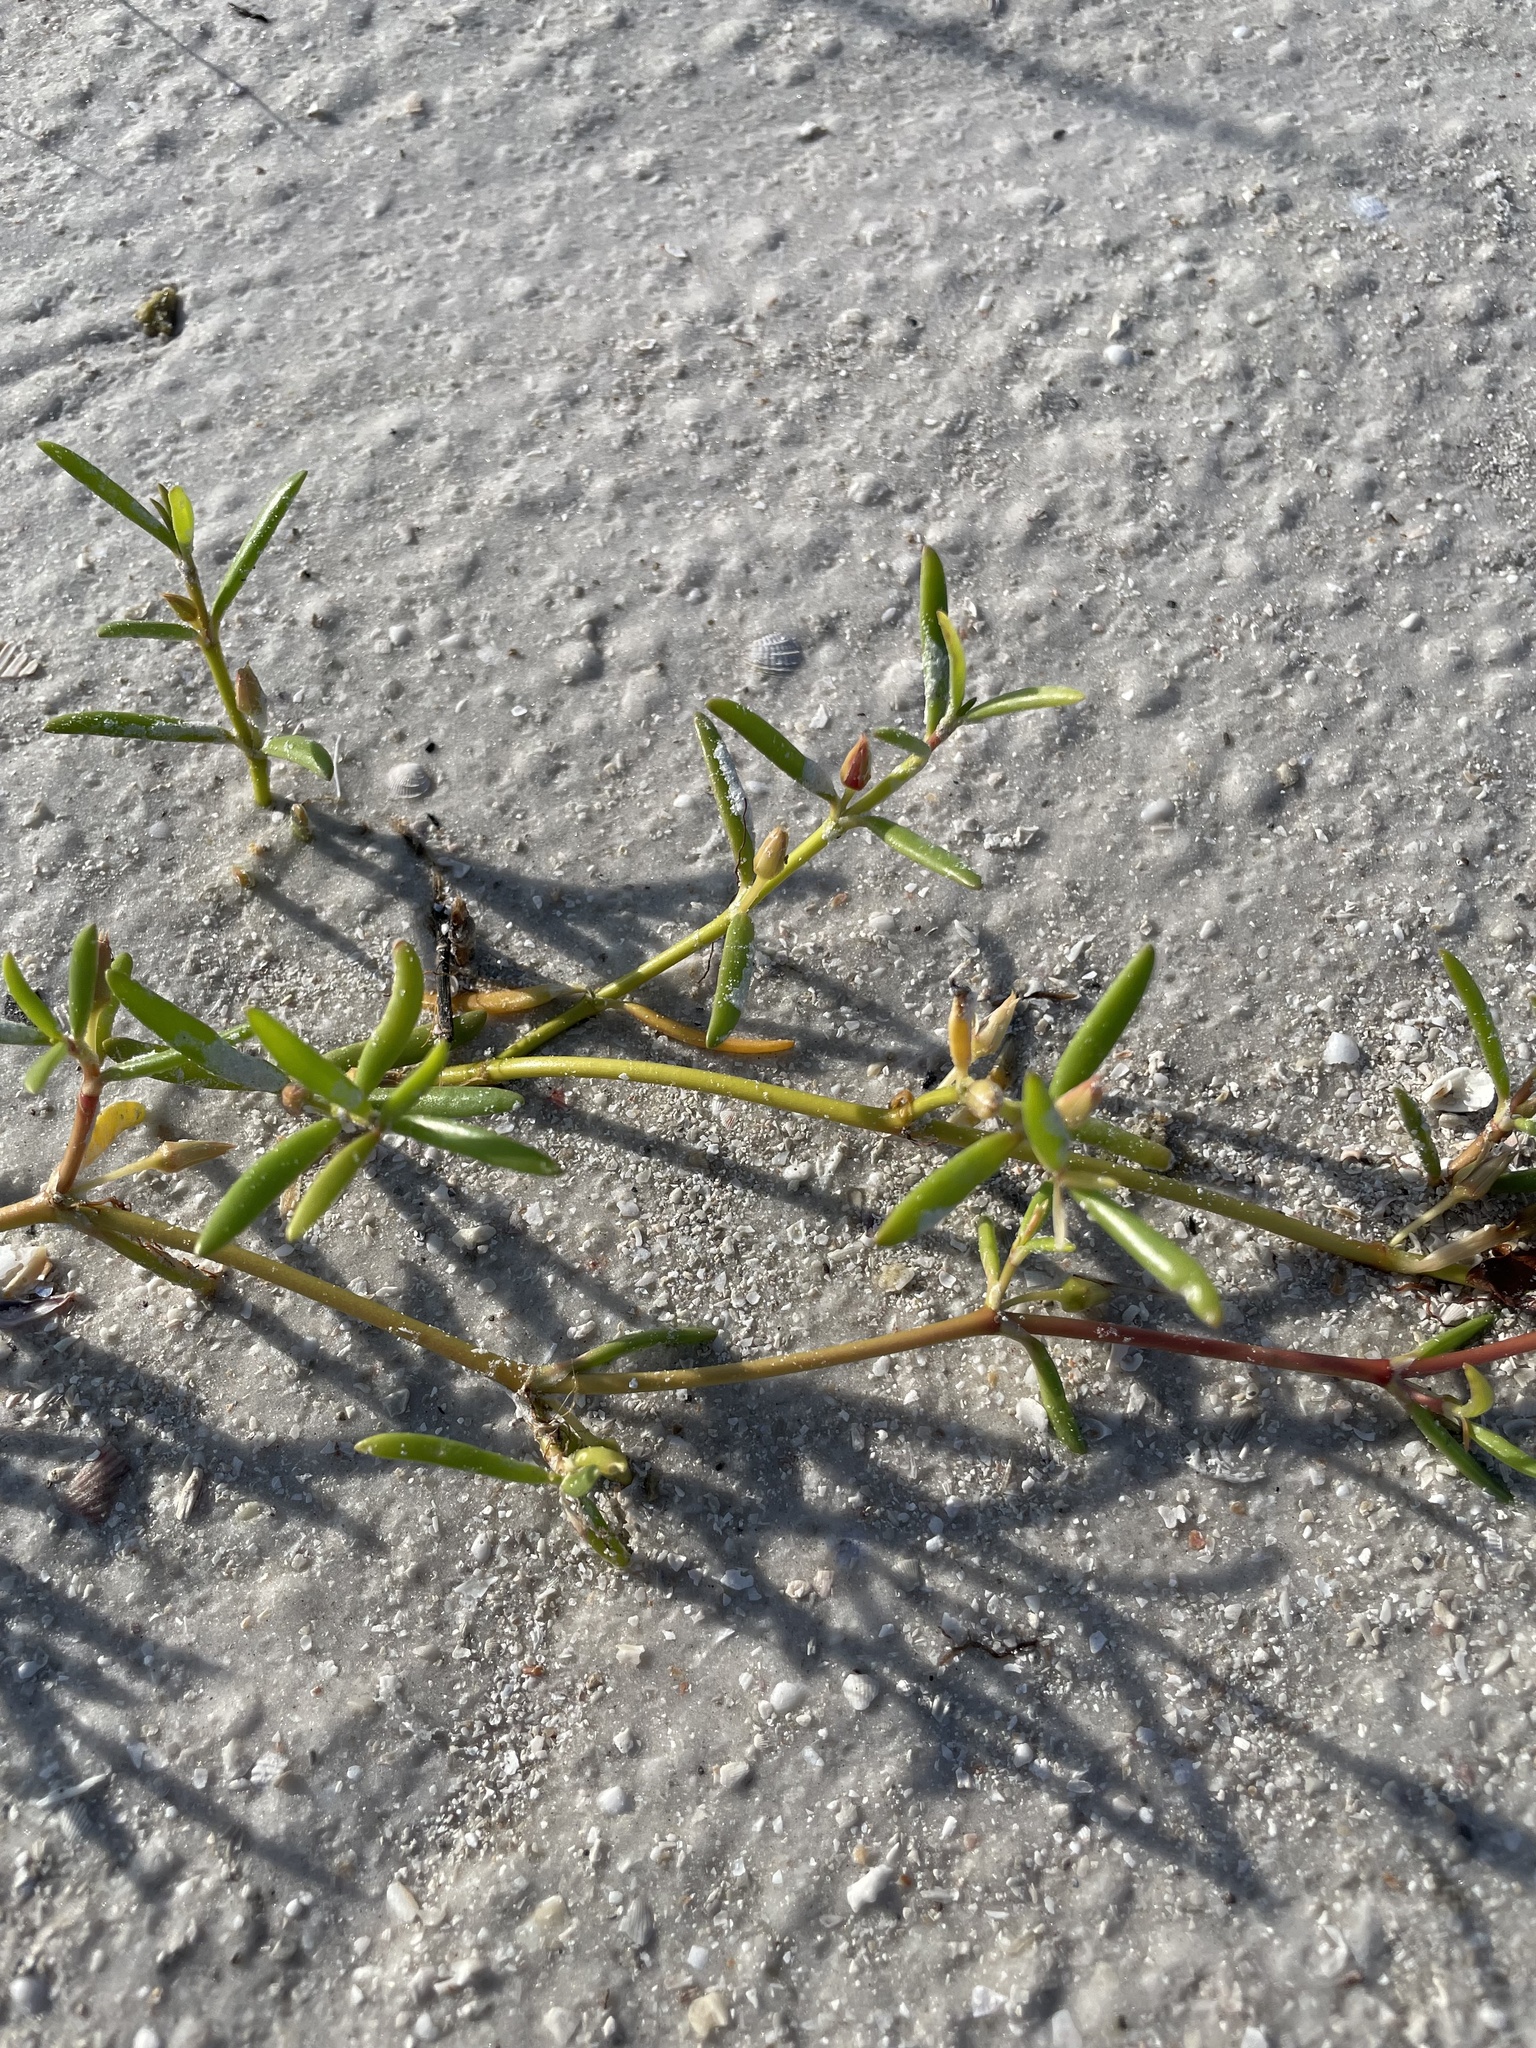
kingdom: Plantae
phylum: Tracheophyta
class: Magnoliopsida
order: Caryophyllales
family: Aizoaceae
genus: Sesuvium
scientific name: Sesuvium portulacastrum
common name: Sea-purslane
